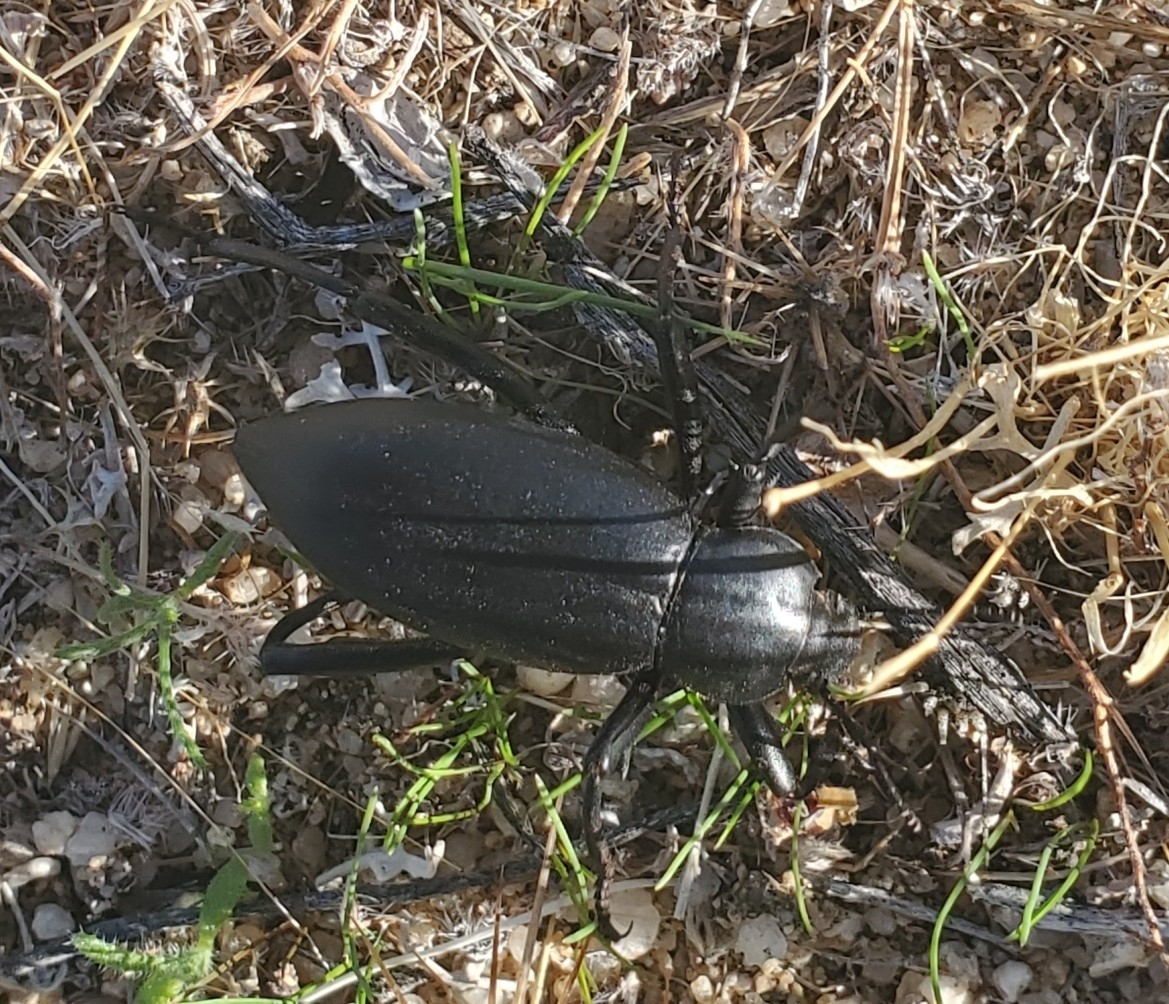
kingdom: Animalia
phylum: Arthropoda
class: Insecta
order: Coleoptera
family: Tenebrionidae
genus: Eleodes
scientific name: Eleodes armata
